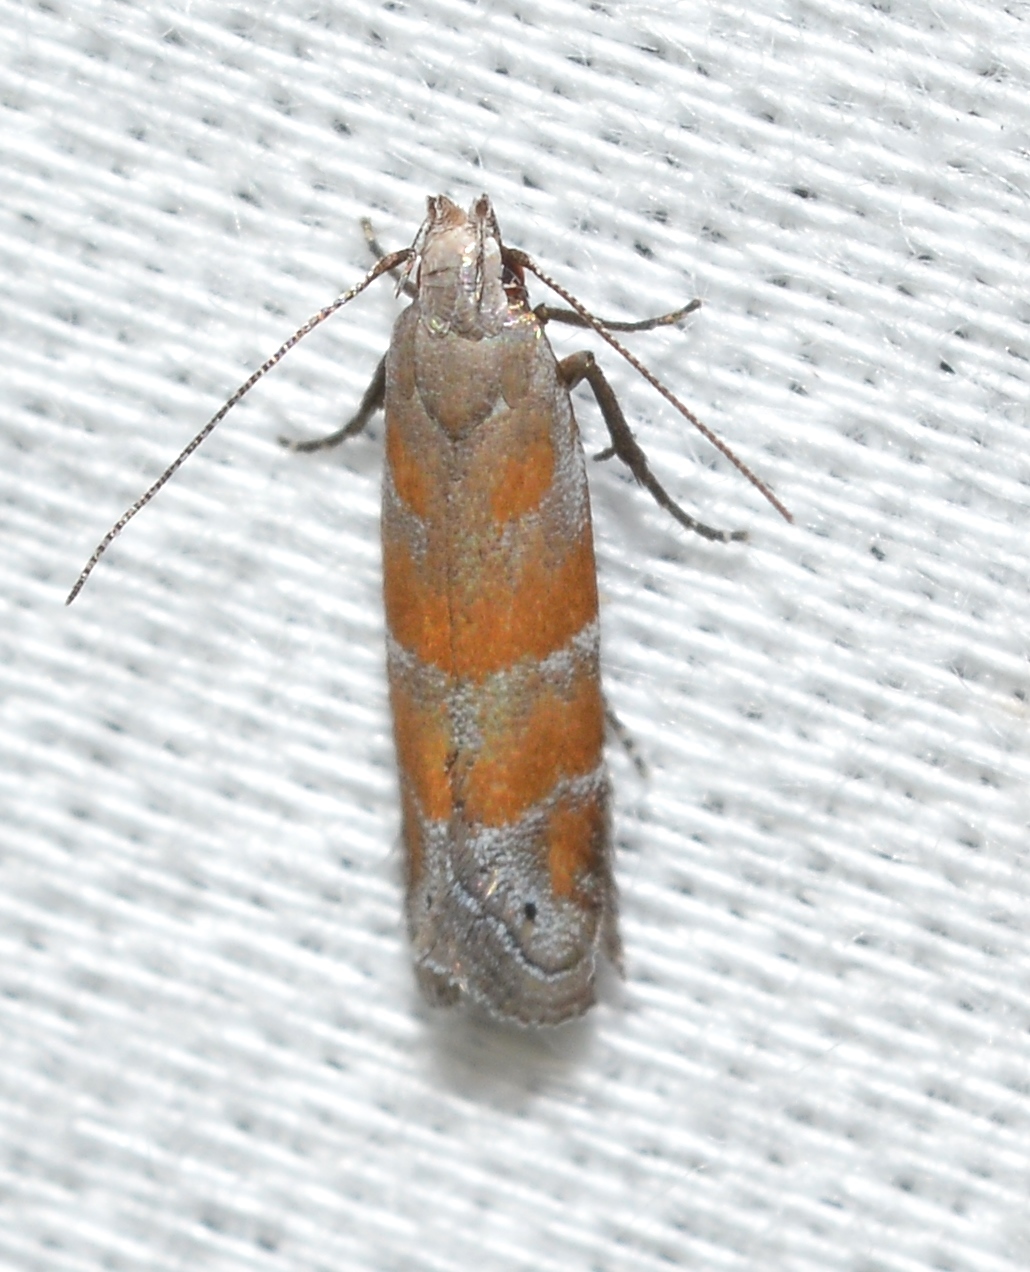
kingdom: Animalia
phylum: Arthropoda
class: Insecta
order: Lepidoptera
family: Gelechiidae
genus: Battaristis
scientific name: Battaristis vittella
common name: Orange stripe-backed moth
